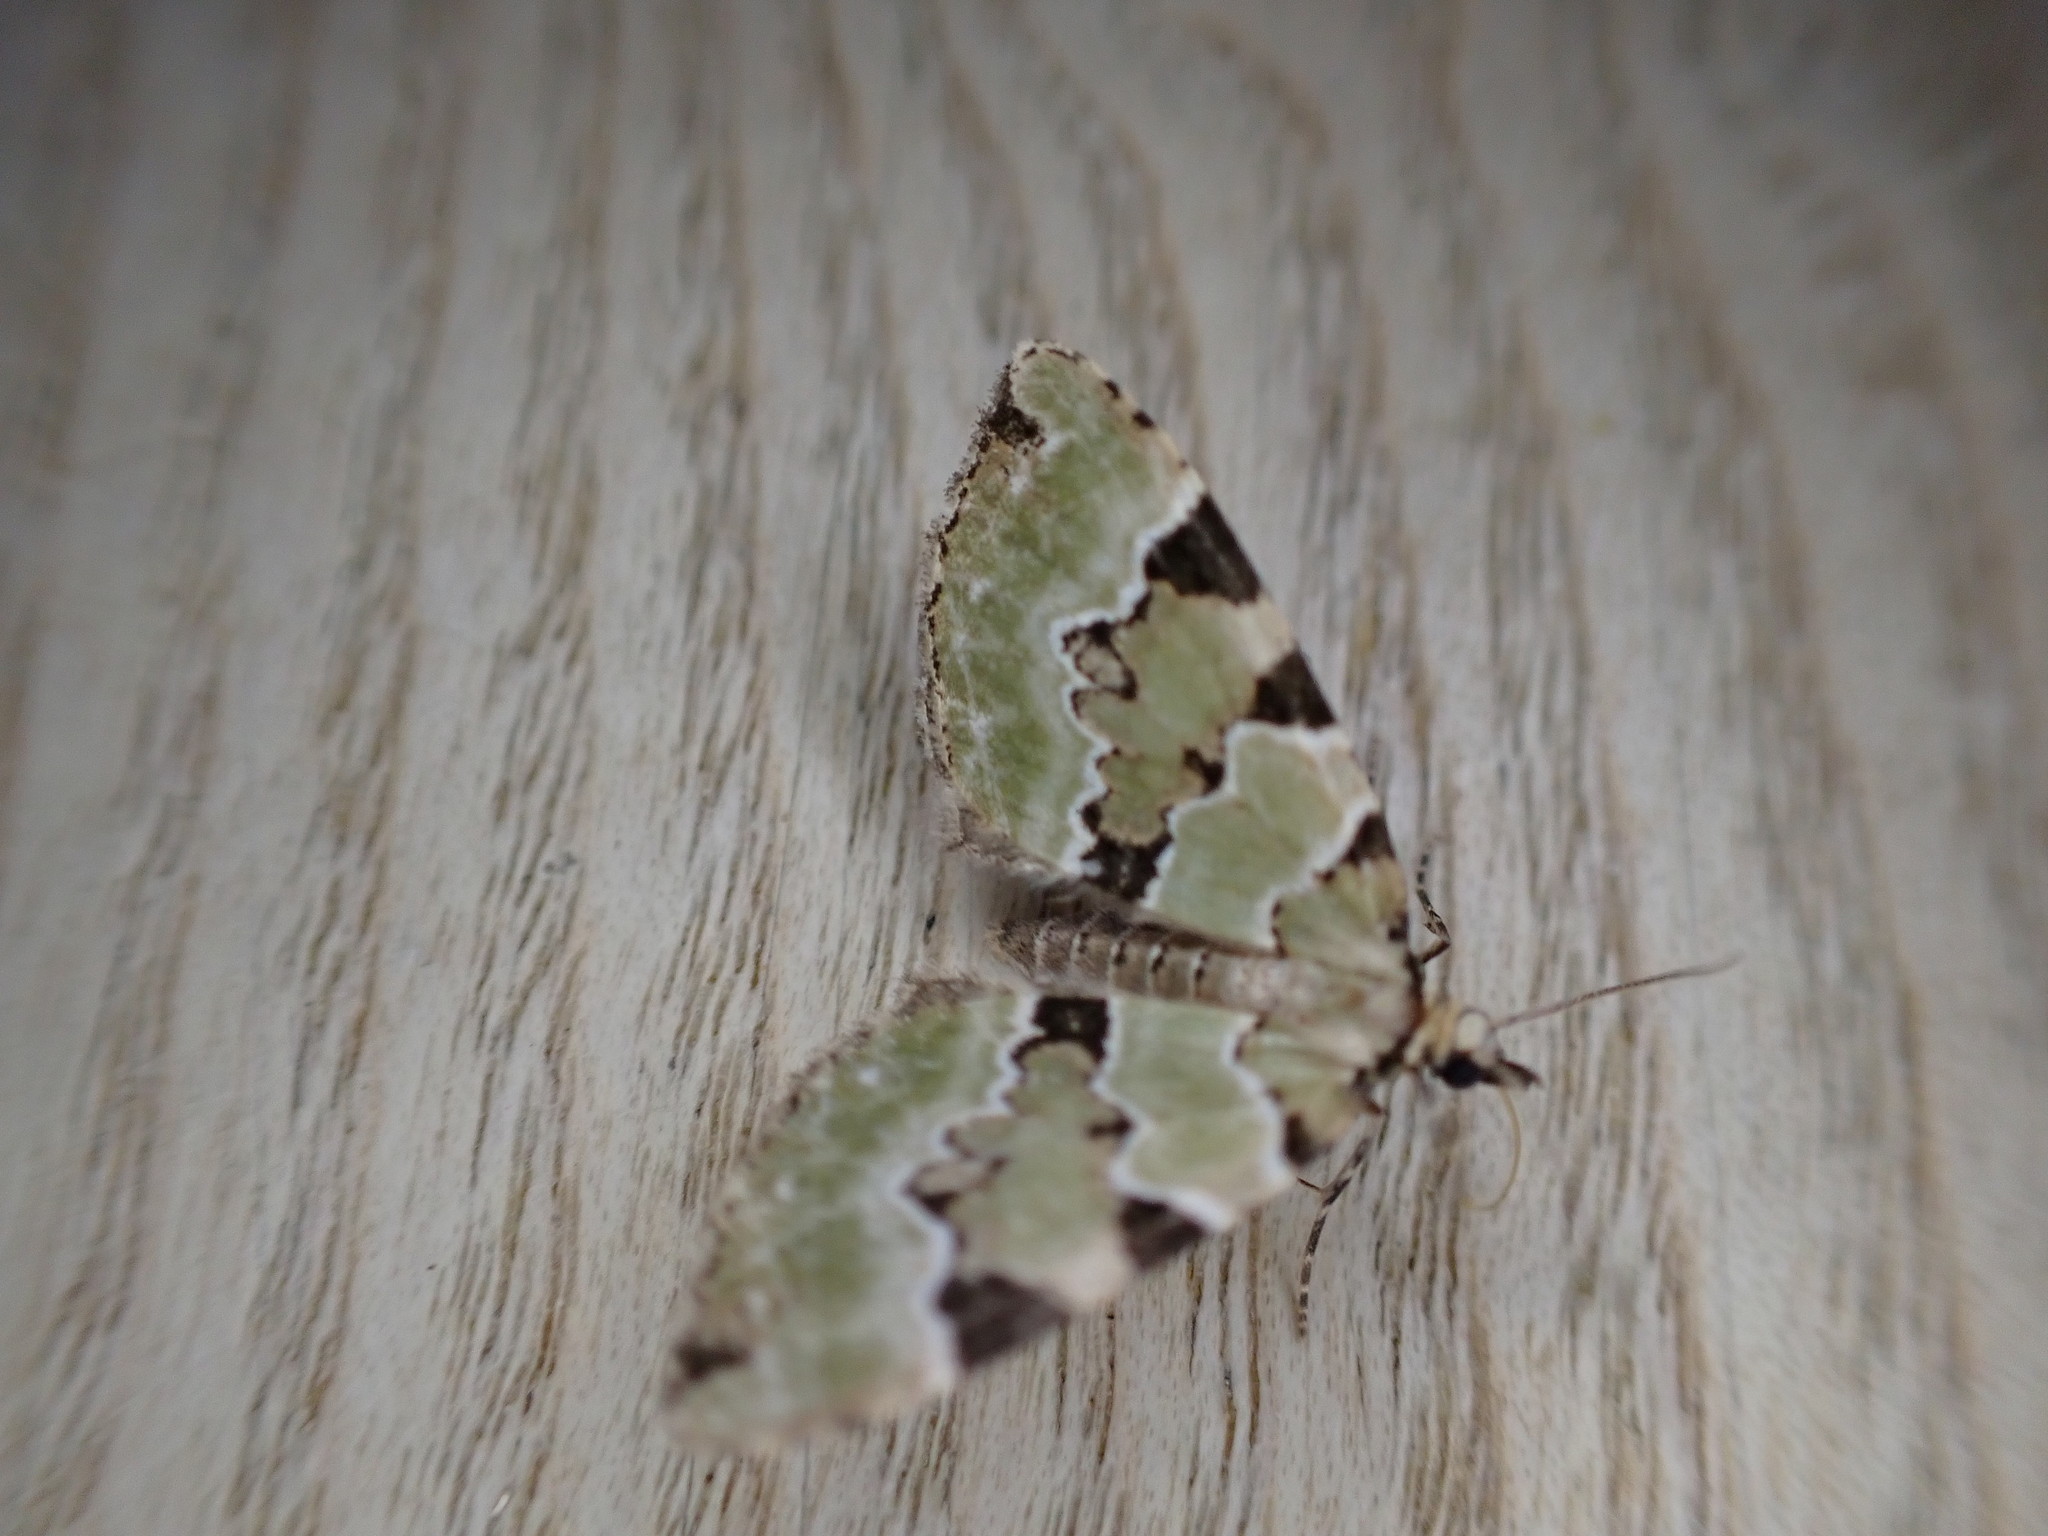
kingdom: Animalia
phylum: Arthropoda
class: Insecta
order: Lepidoptera
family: Geometridae
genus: Colostygia
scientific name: Colostygia pectinataria
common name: Green carpet
